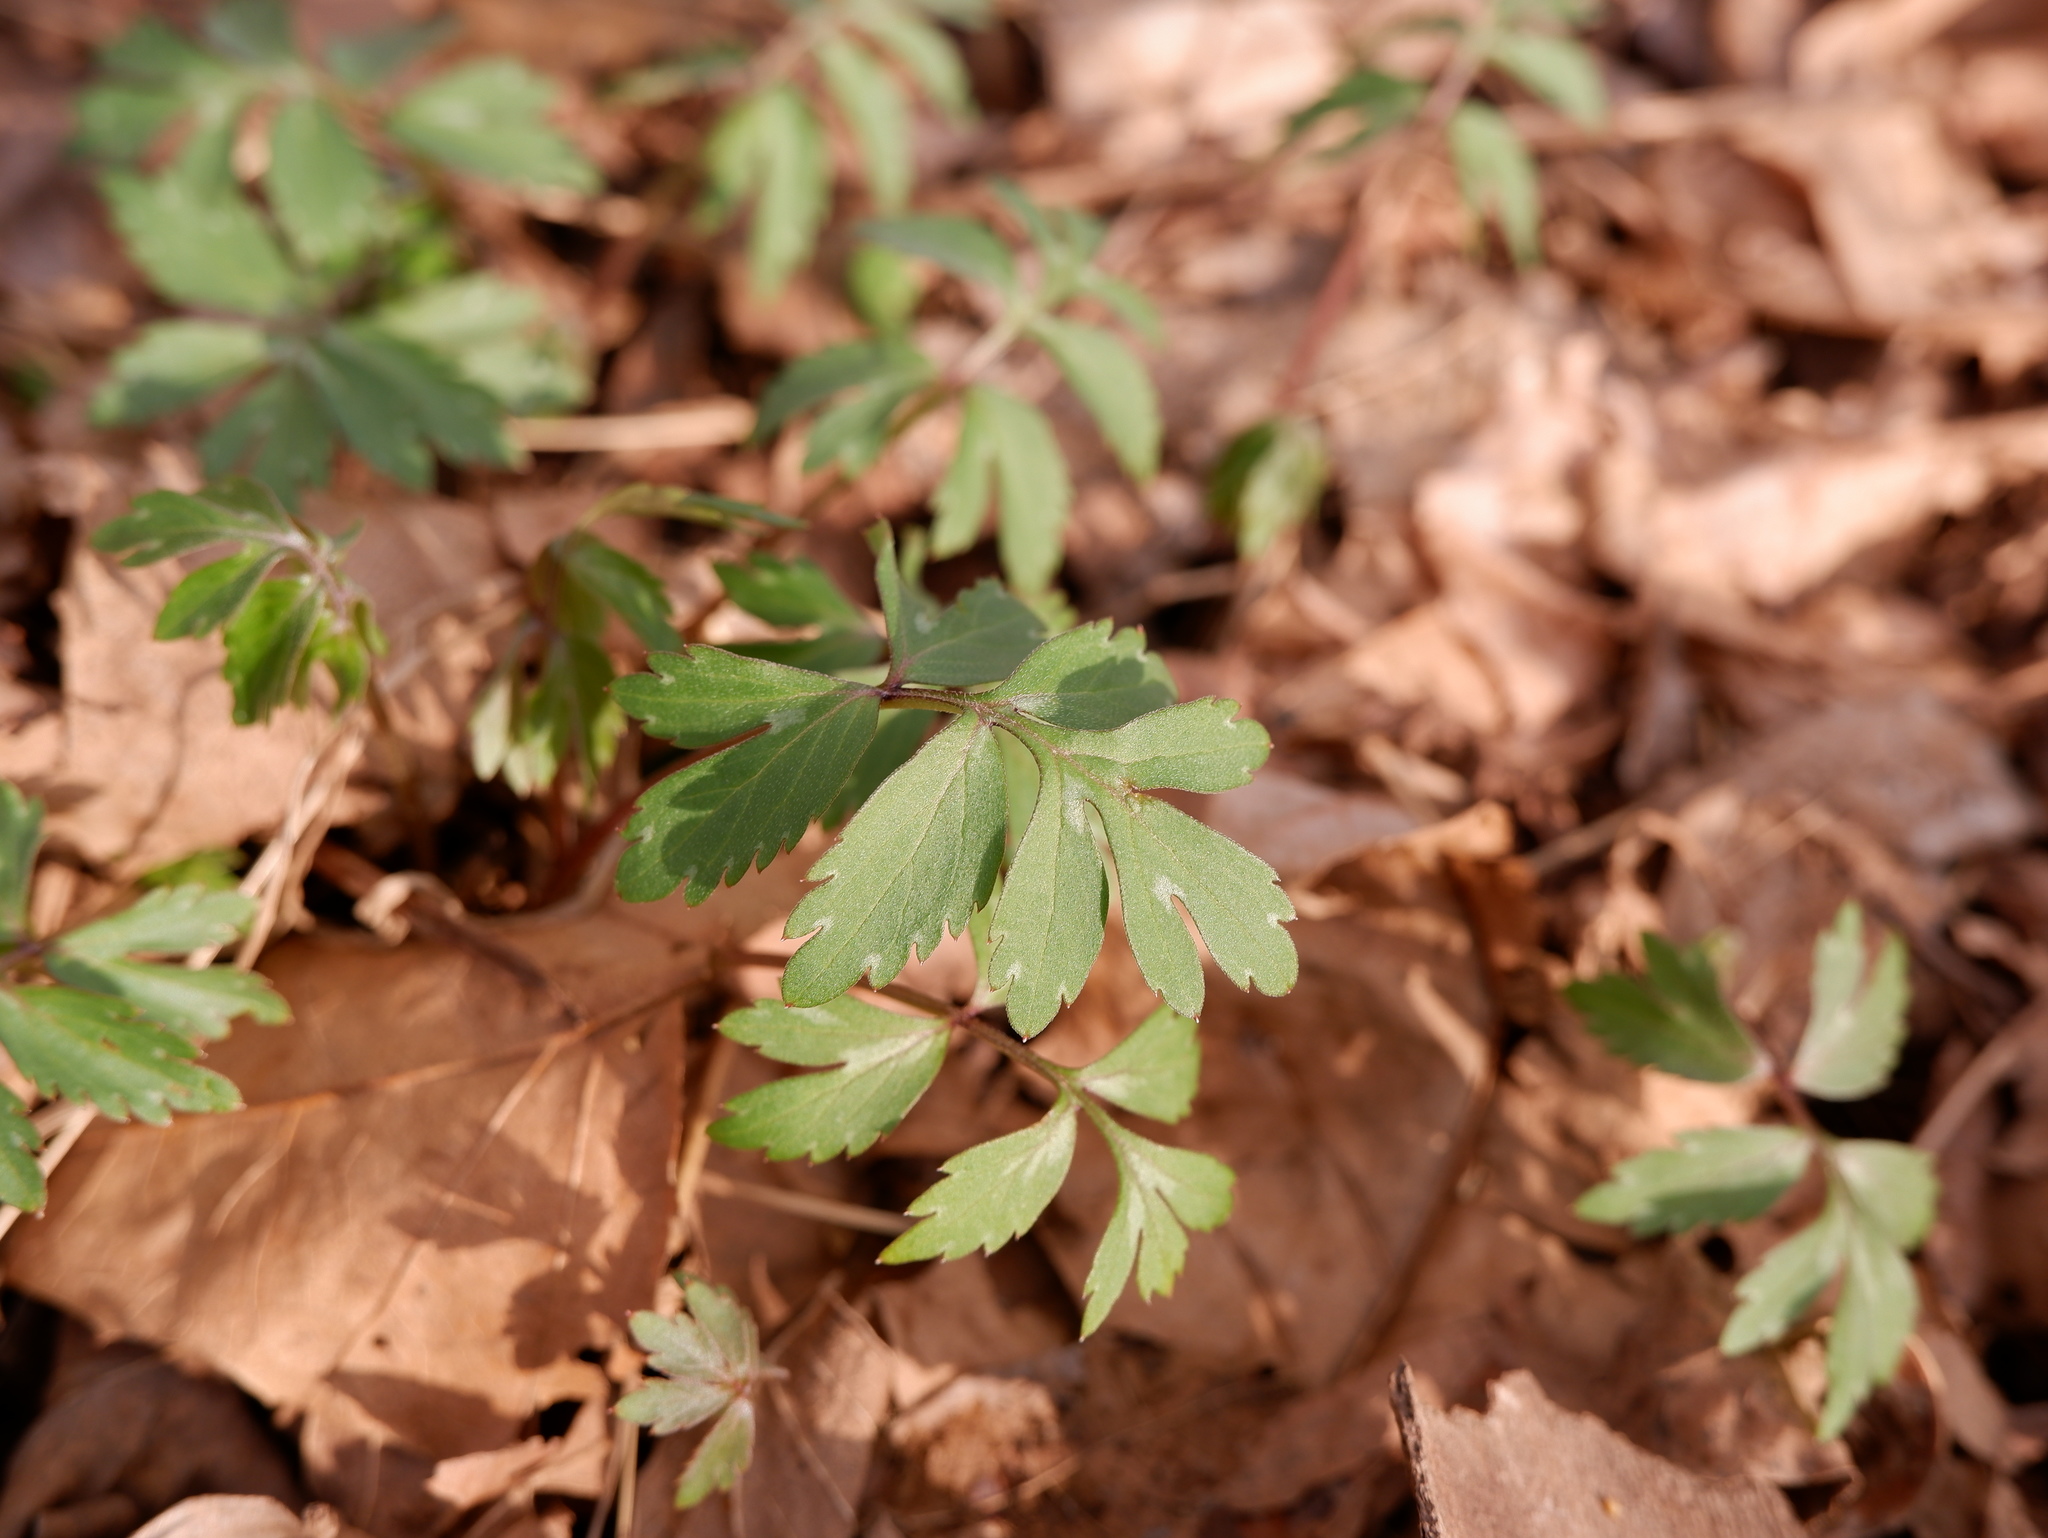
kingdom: Plantae
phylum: Tracheophyta
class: Magnoliopsida
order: Boraginales
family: Hydrophyllaceae
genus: Hydrophyllum
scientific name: Hydrophyllum virginianum
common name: Virginia waterleaf
